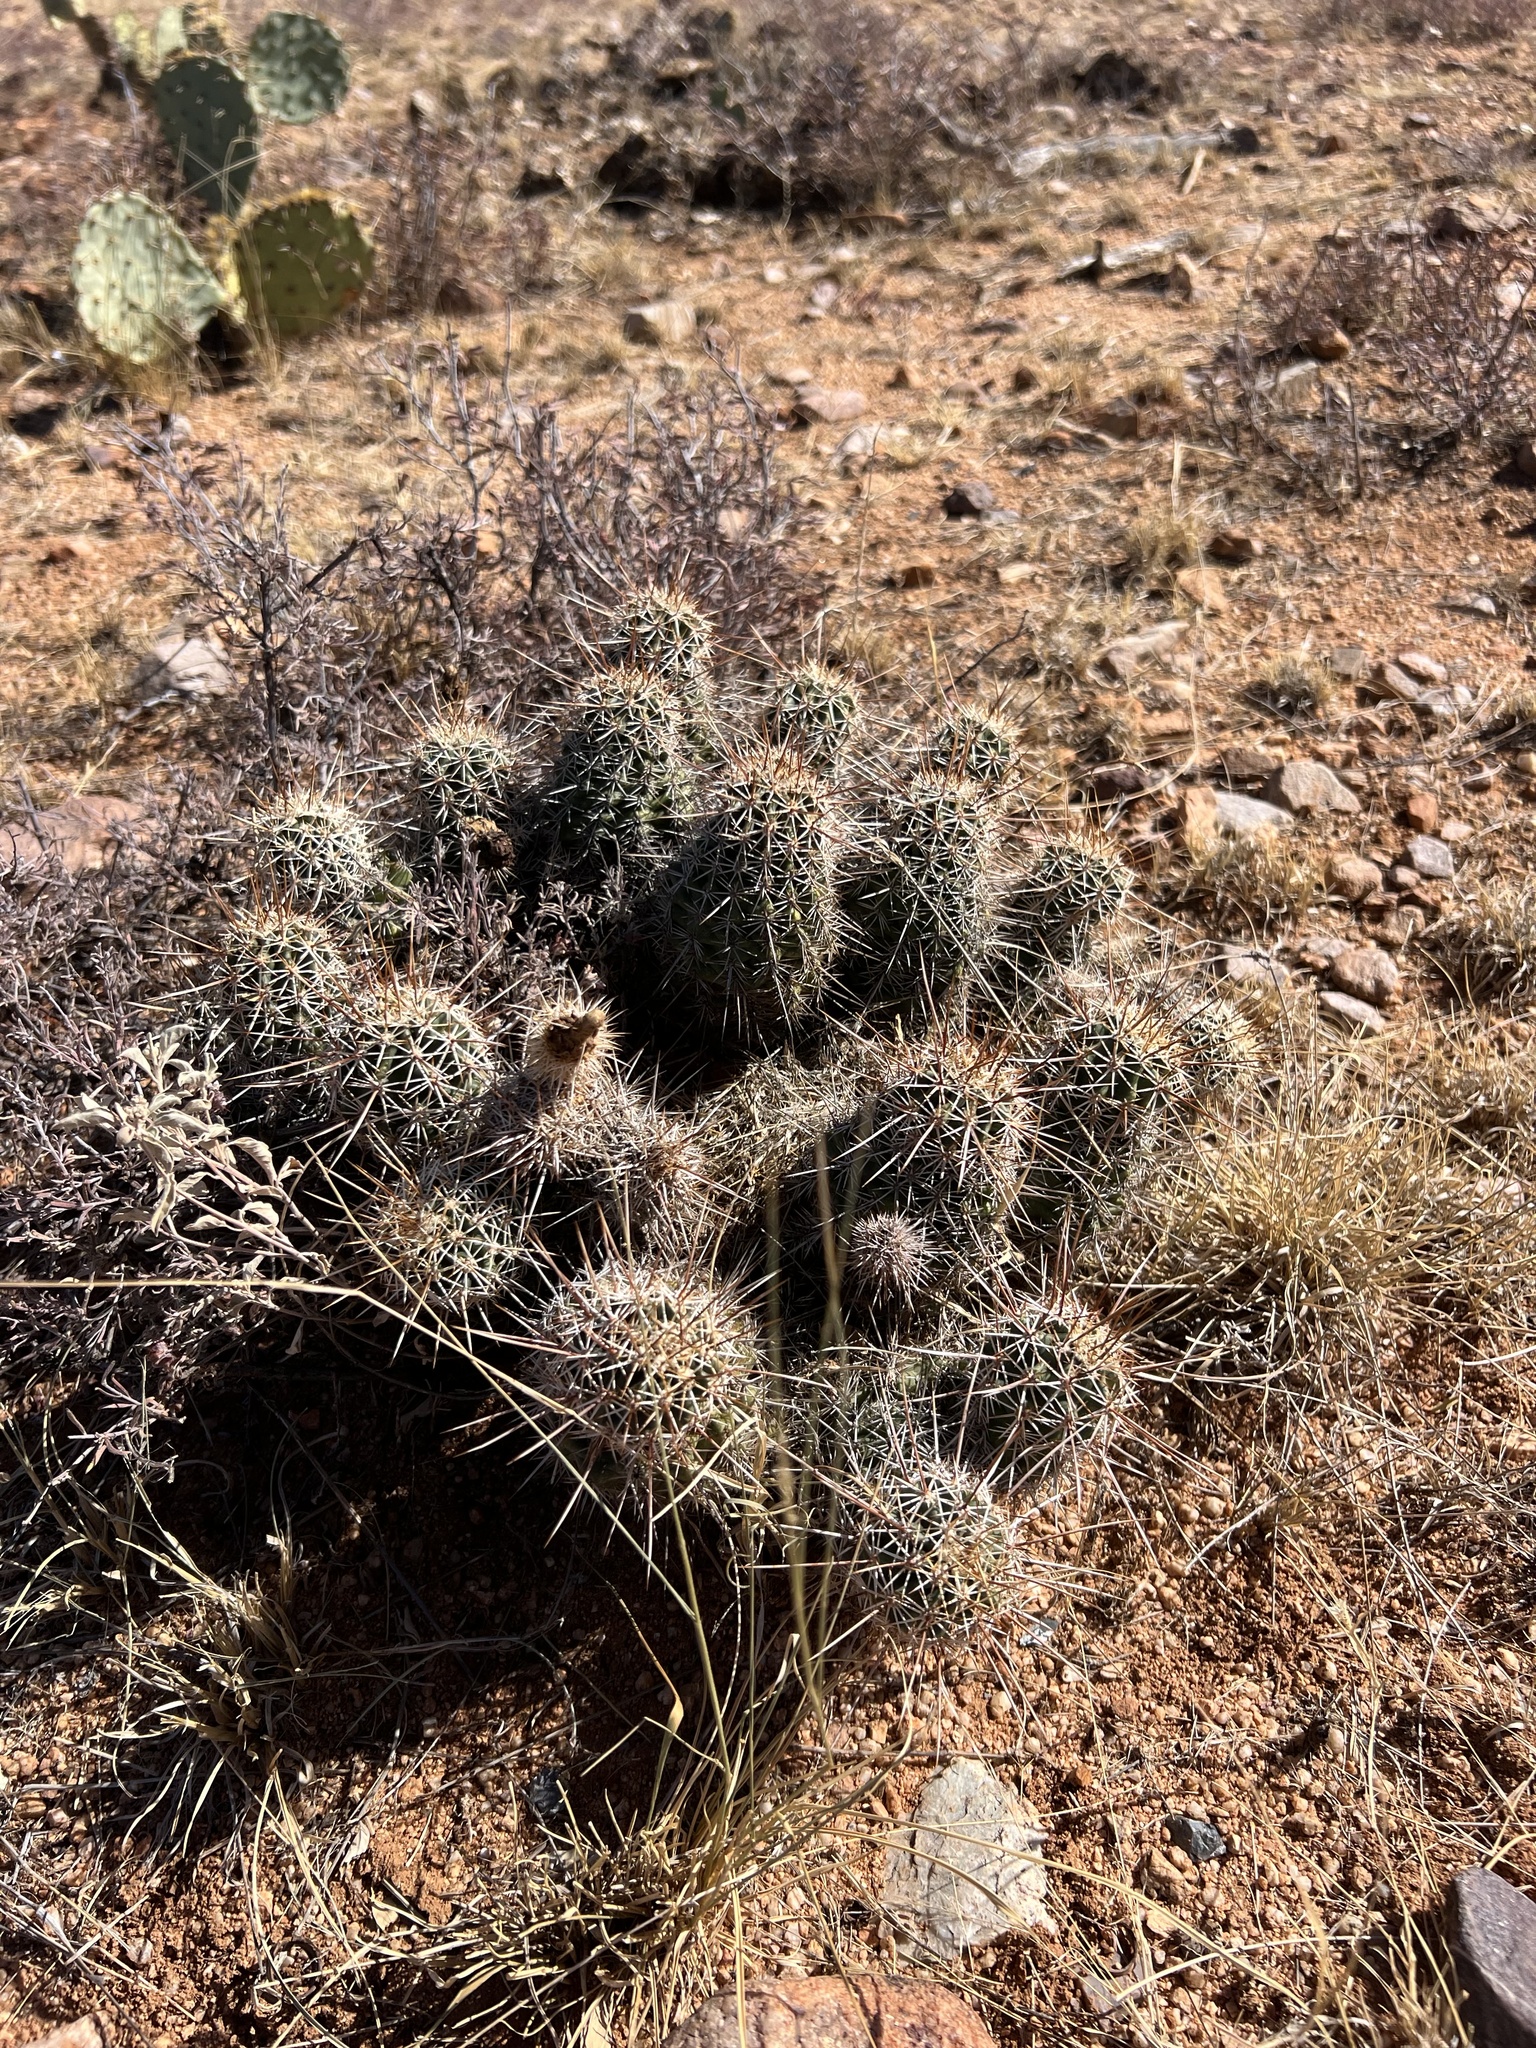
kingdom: Plantae
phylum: Tracheophyta
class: Magnoliopsida
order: Caryophyllales
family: Cactaceae
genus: Echinocereus
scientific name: Echinocereus fasciculatus
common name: Bundle hedgehog
